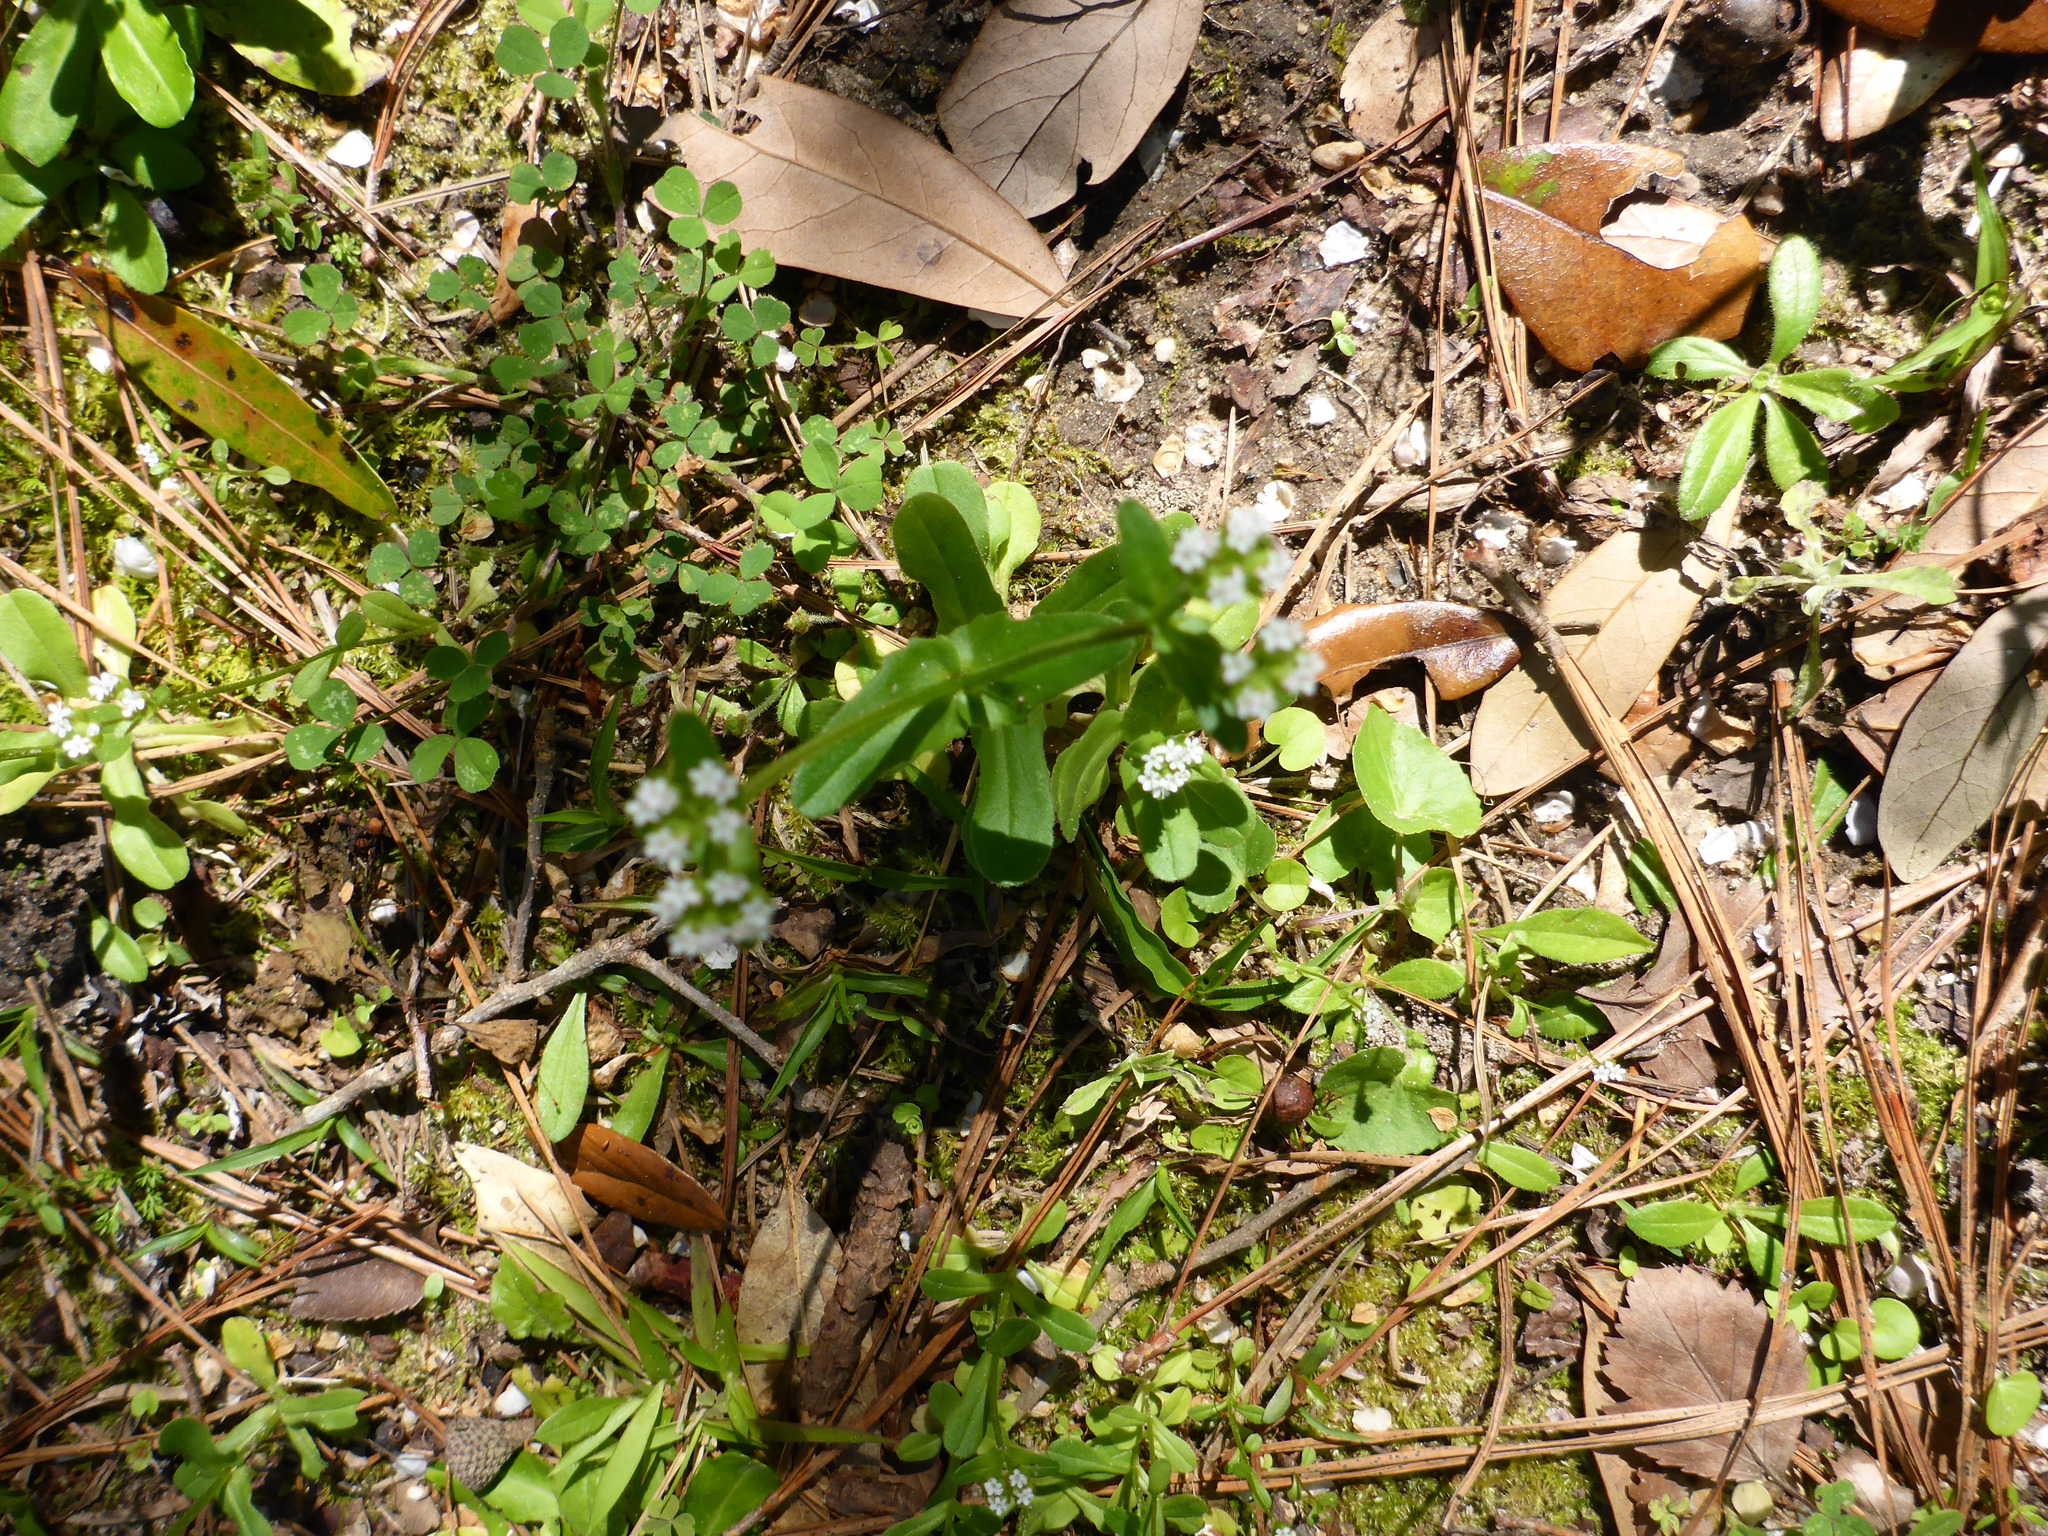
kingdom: Plantae
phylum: Tracheophyta
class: Magnoliopsida
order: Dipsacales
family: Caprifoliaceae
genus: Valerianella
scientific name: Valerianella radiata
